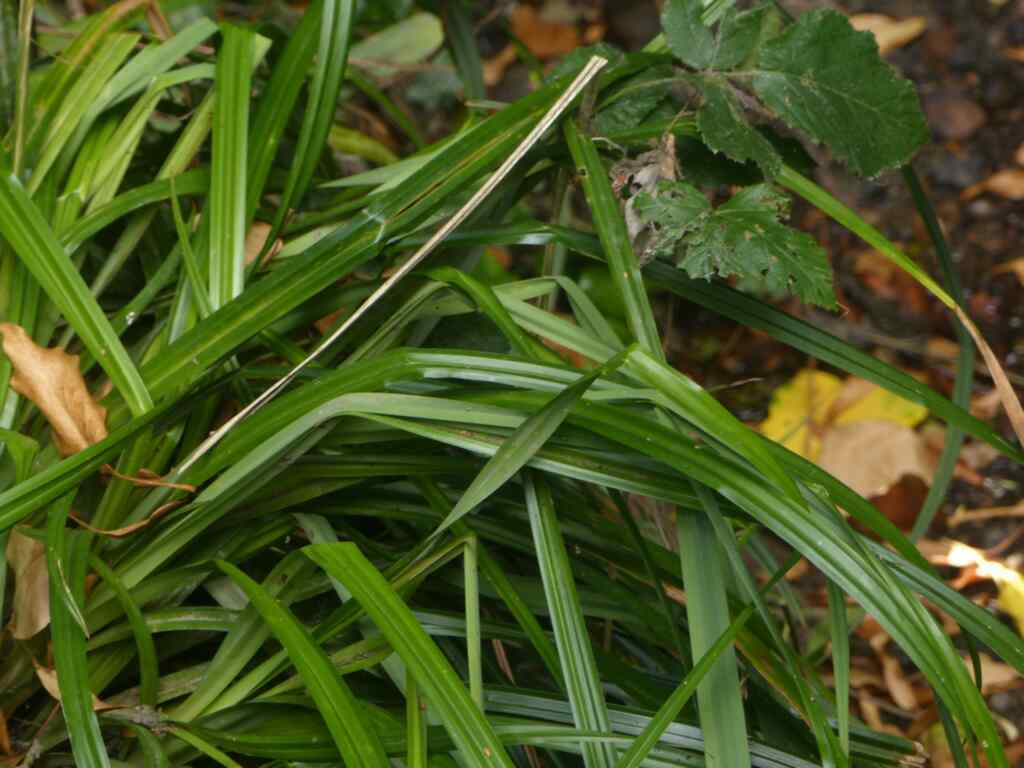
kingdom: Plantae
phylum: Tracheophyta
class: Liliopsida
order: Poales
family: Cyperaceae
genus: Carex
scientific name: Carex pendula
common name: Pendulous sedge
